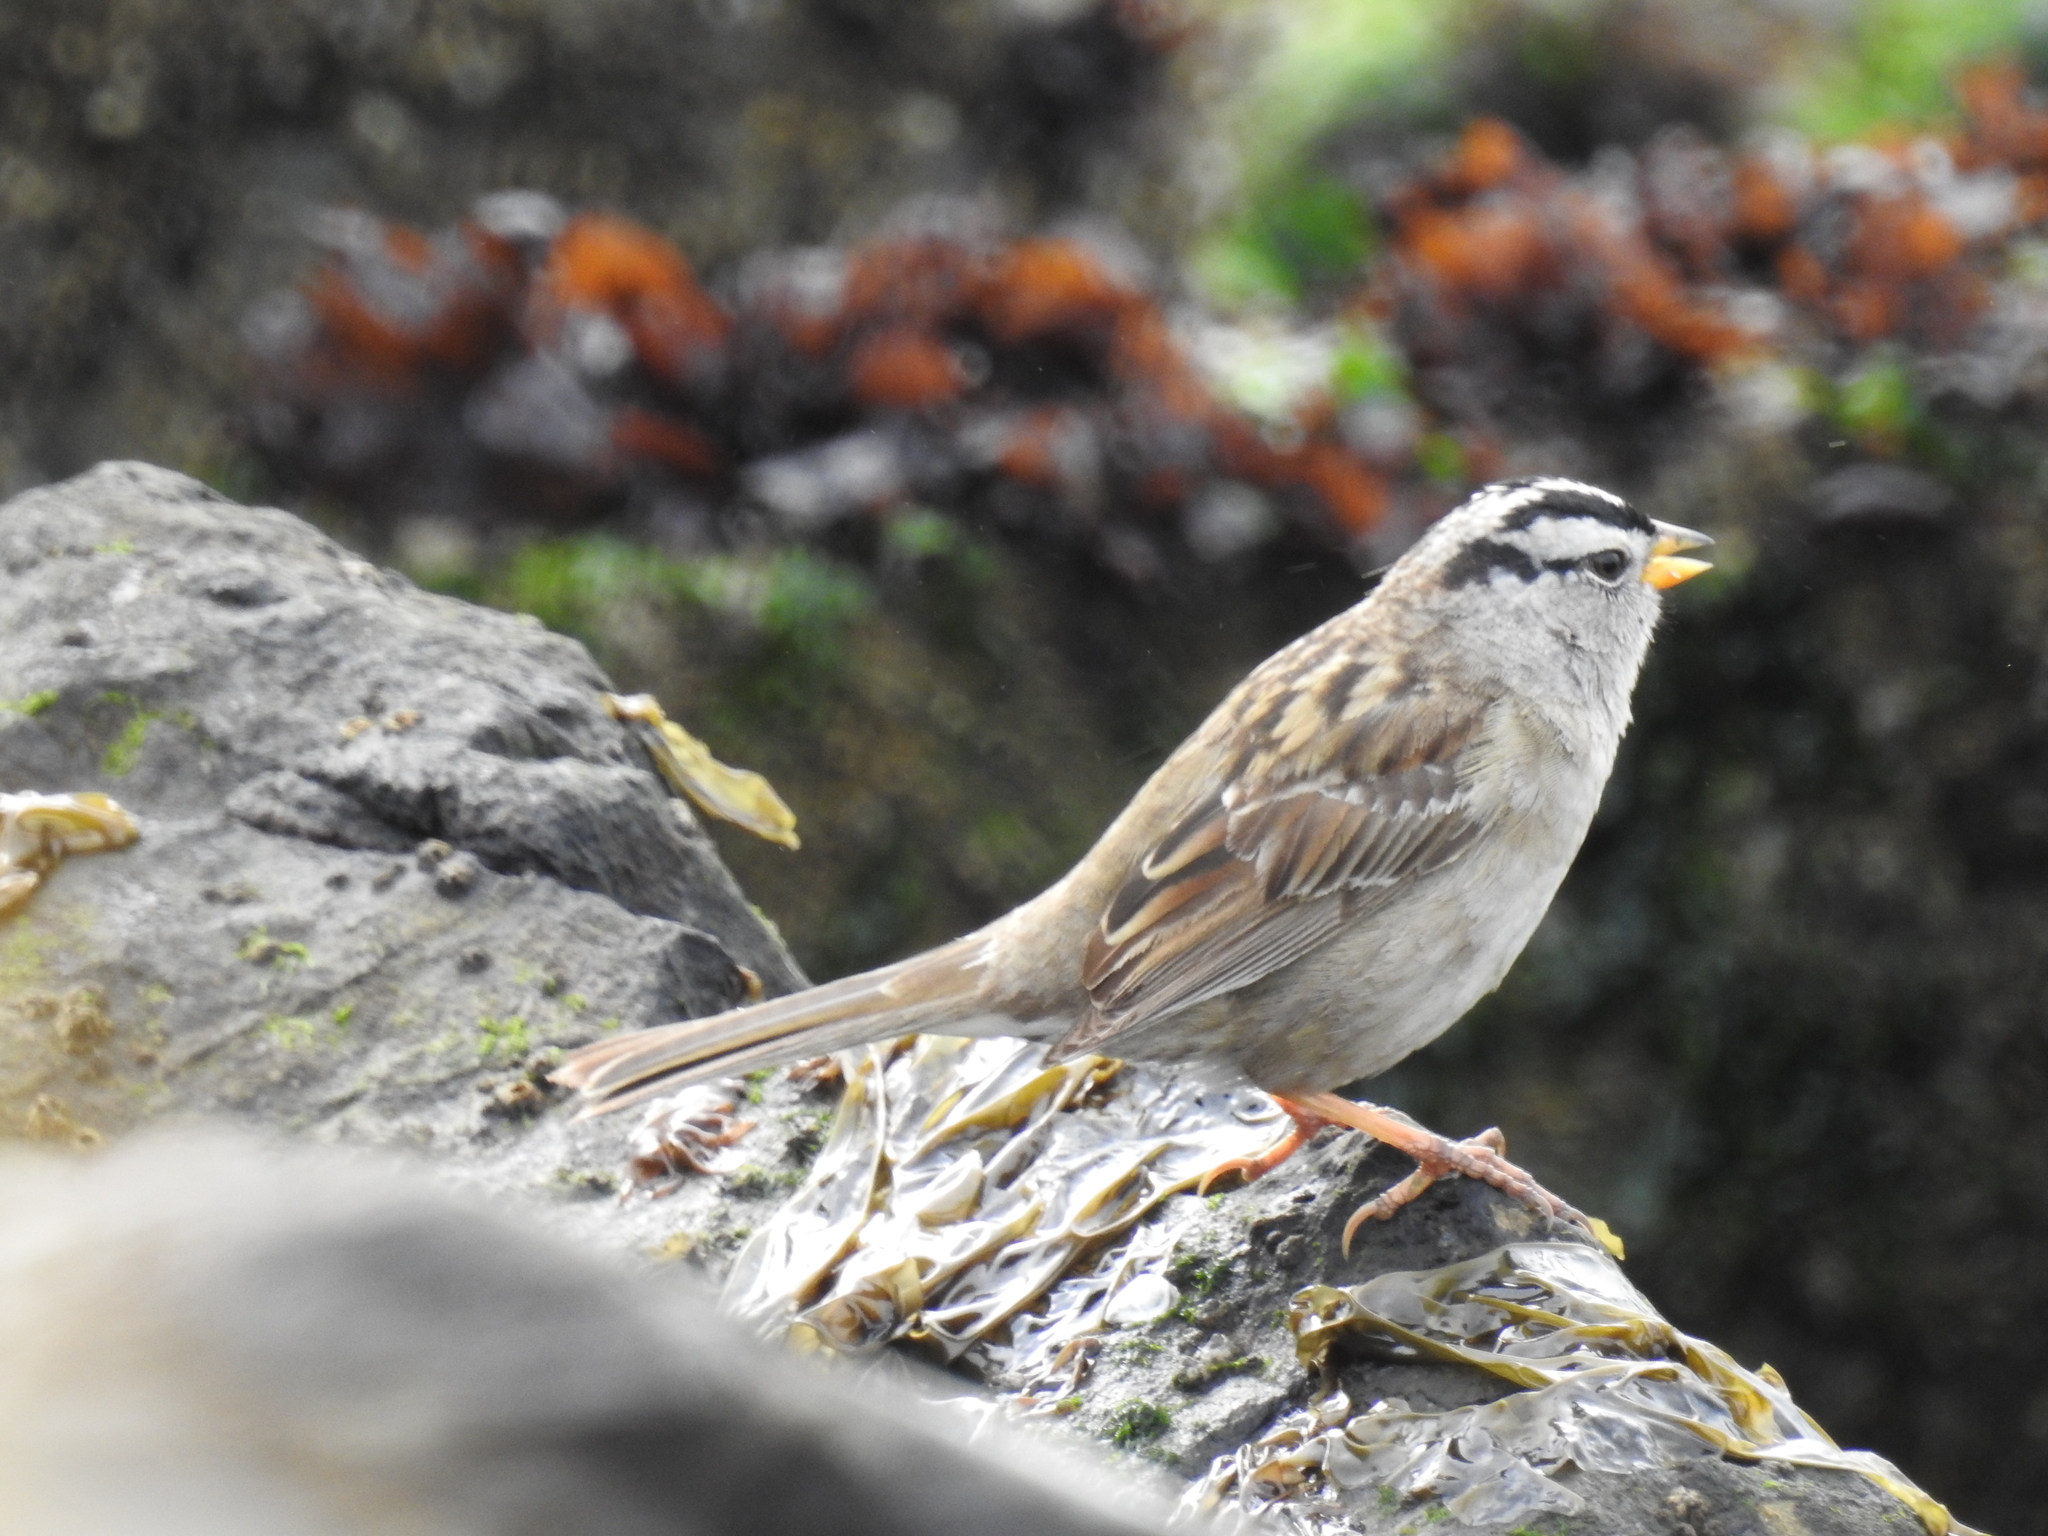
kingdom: Animalia
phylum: Chordata
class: Aves
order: Passeriformes
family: Passerellidae
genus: Zonotrichia
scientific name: Zonotrichia leucophrys
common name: White-crowned sparrow
